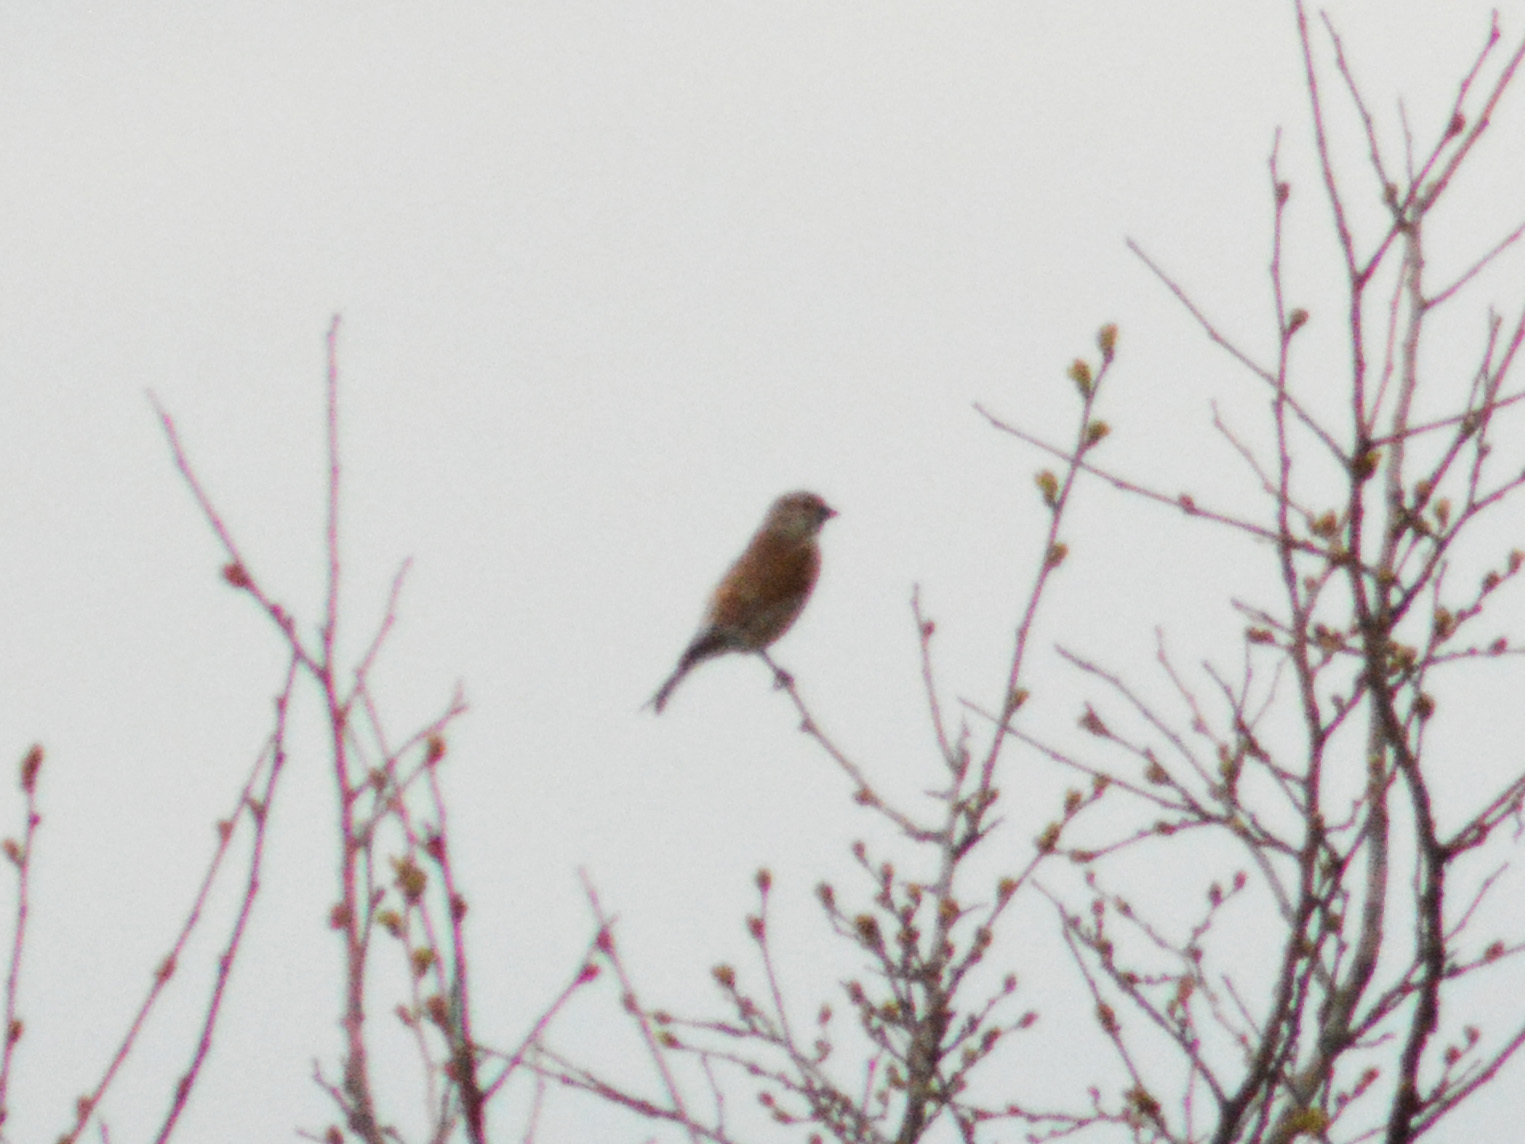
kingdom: Animalia
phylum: Chordata
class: Aves
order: Passeriformes
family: Fringillidae
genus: Linaria
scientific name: Linaria cannabina
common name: Common linnet
